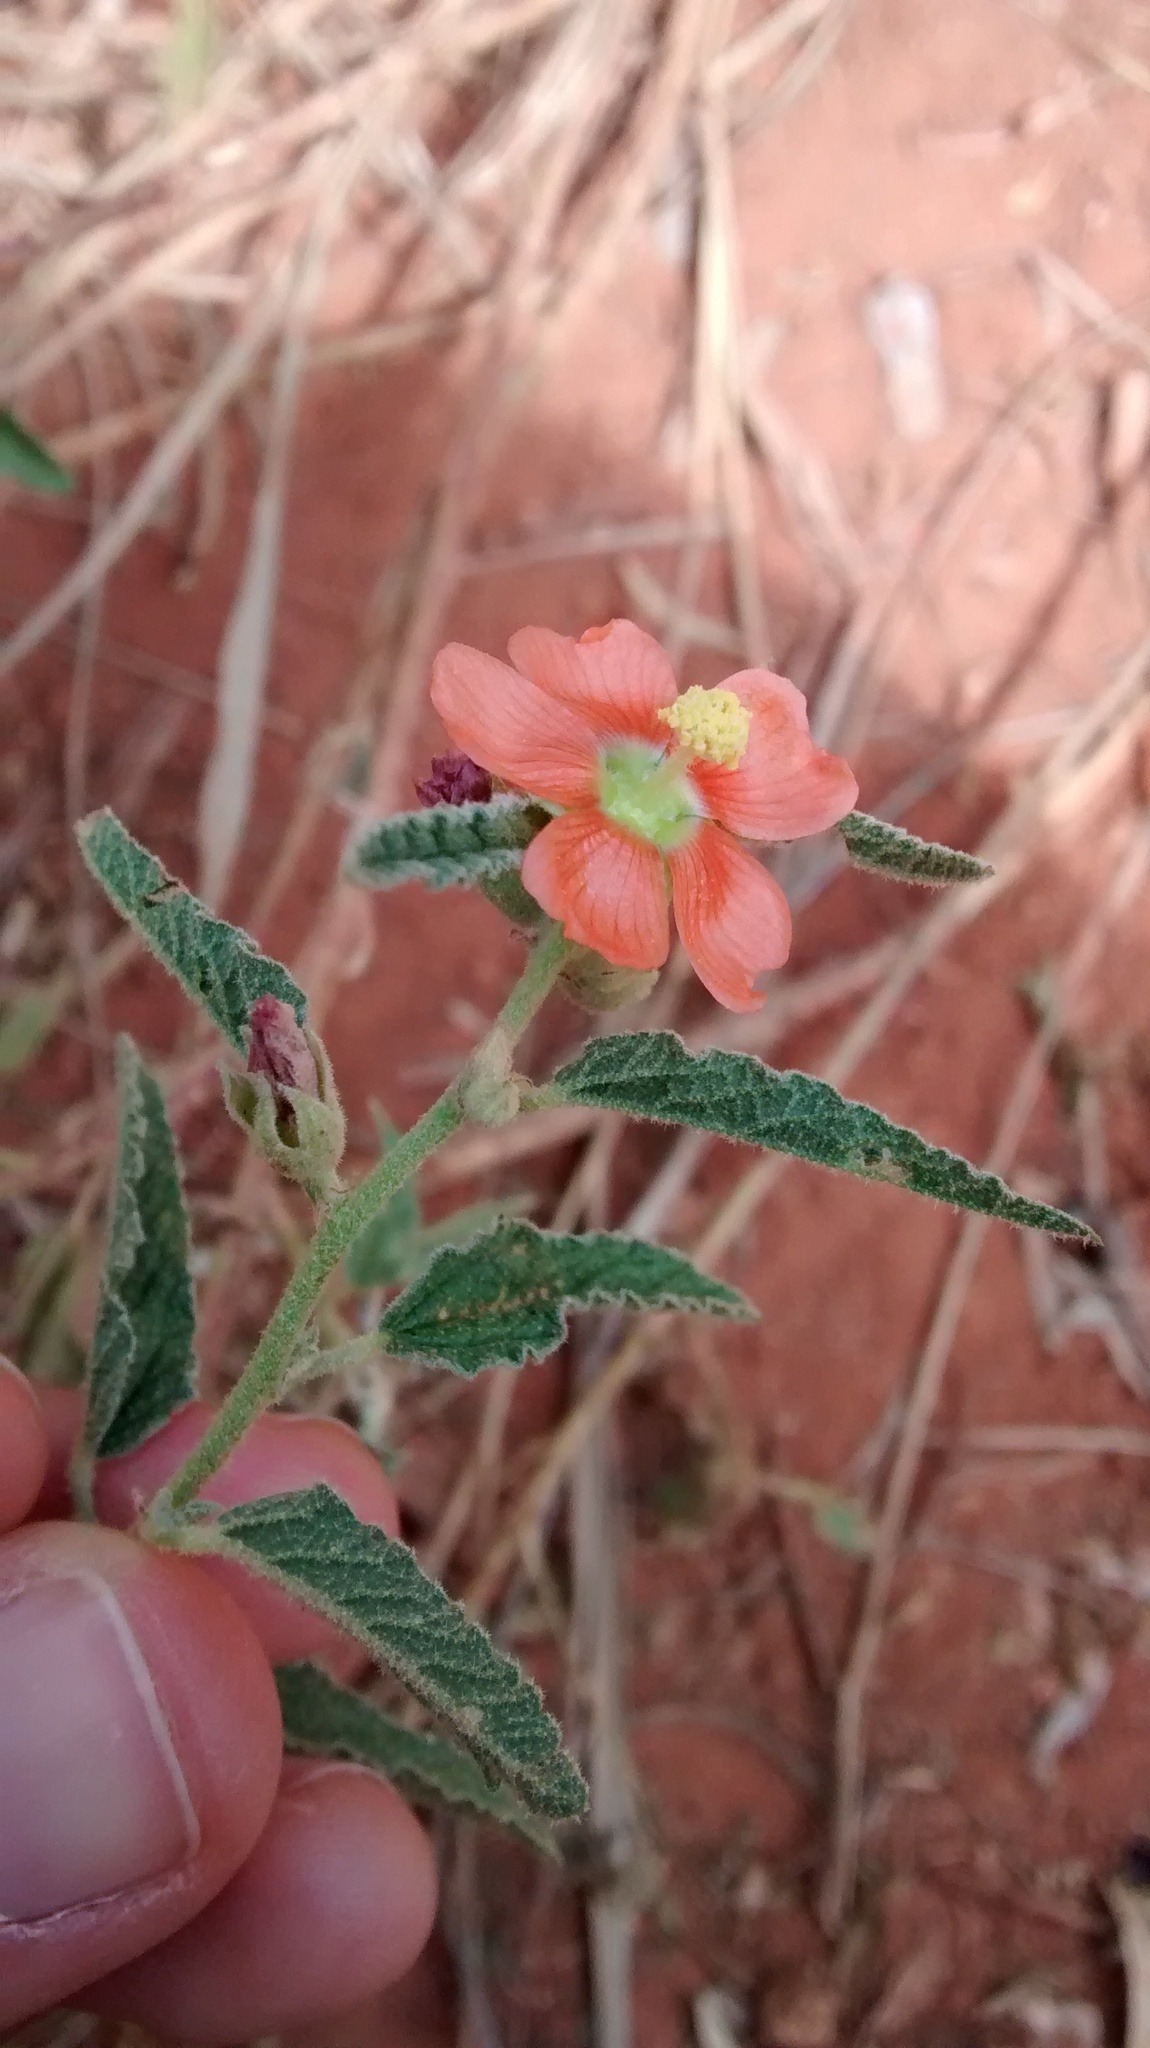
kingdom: Plantae
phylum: Tracheophyta
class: Magnoliopsida
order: Malvales
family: Malvaceae
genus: Sphaeralcea
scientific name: Sphaeralcea angustifolia
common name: Copper globe-mallow
